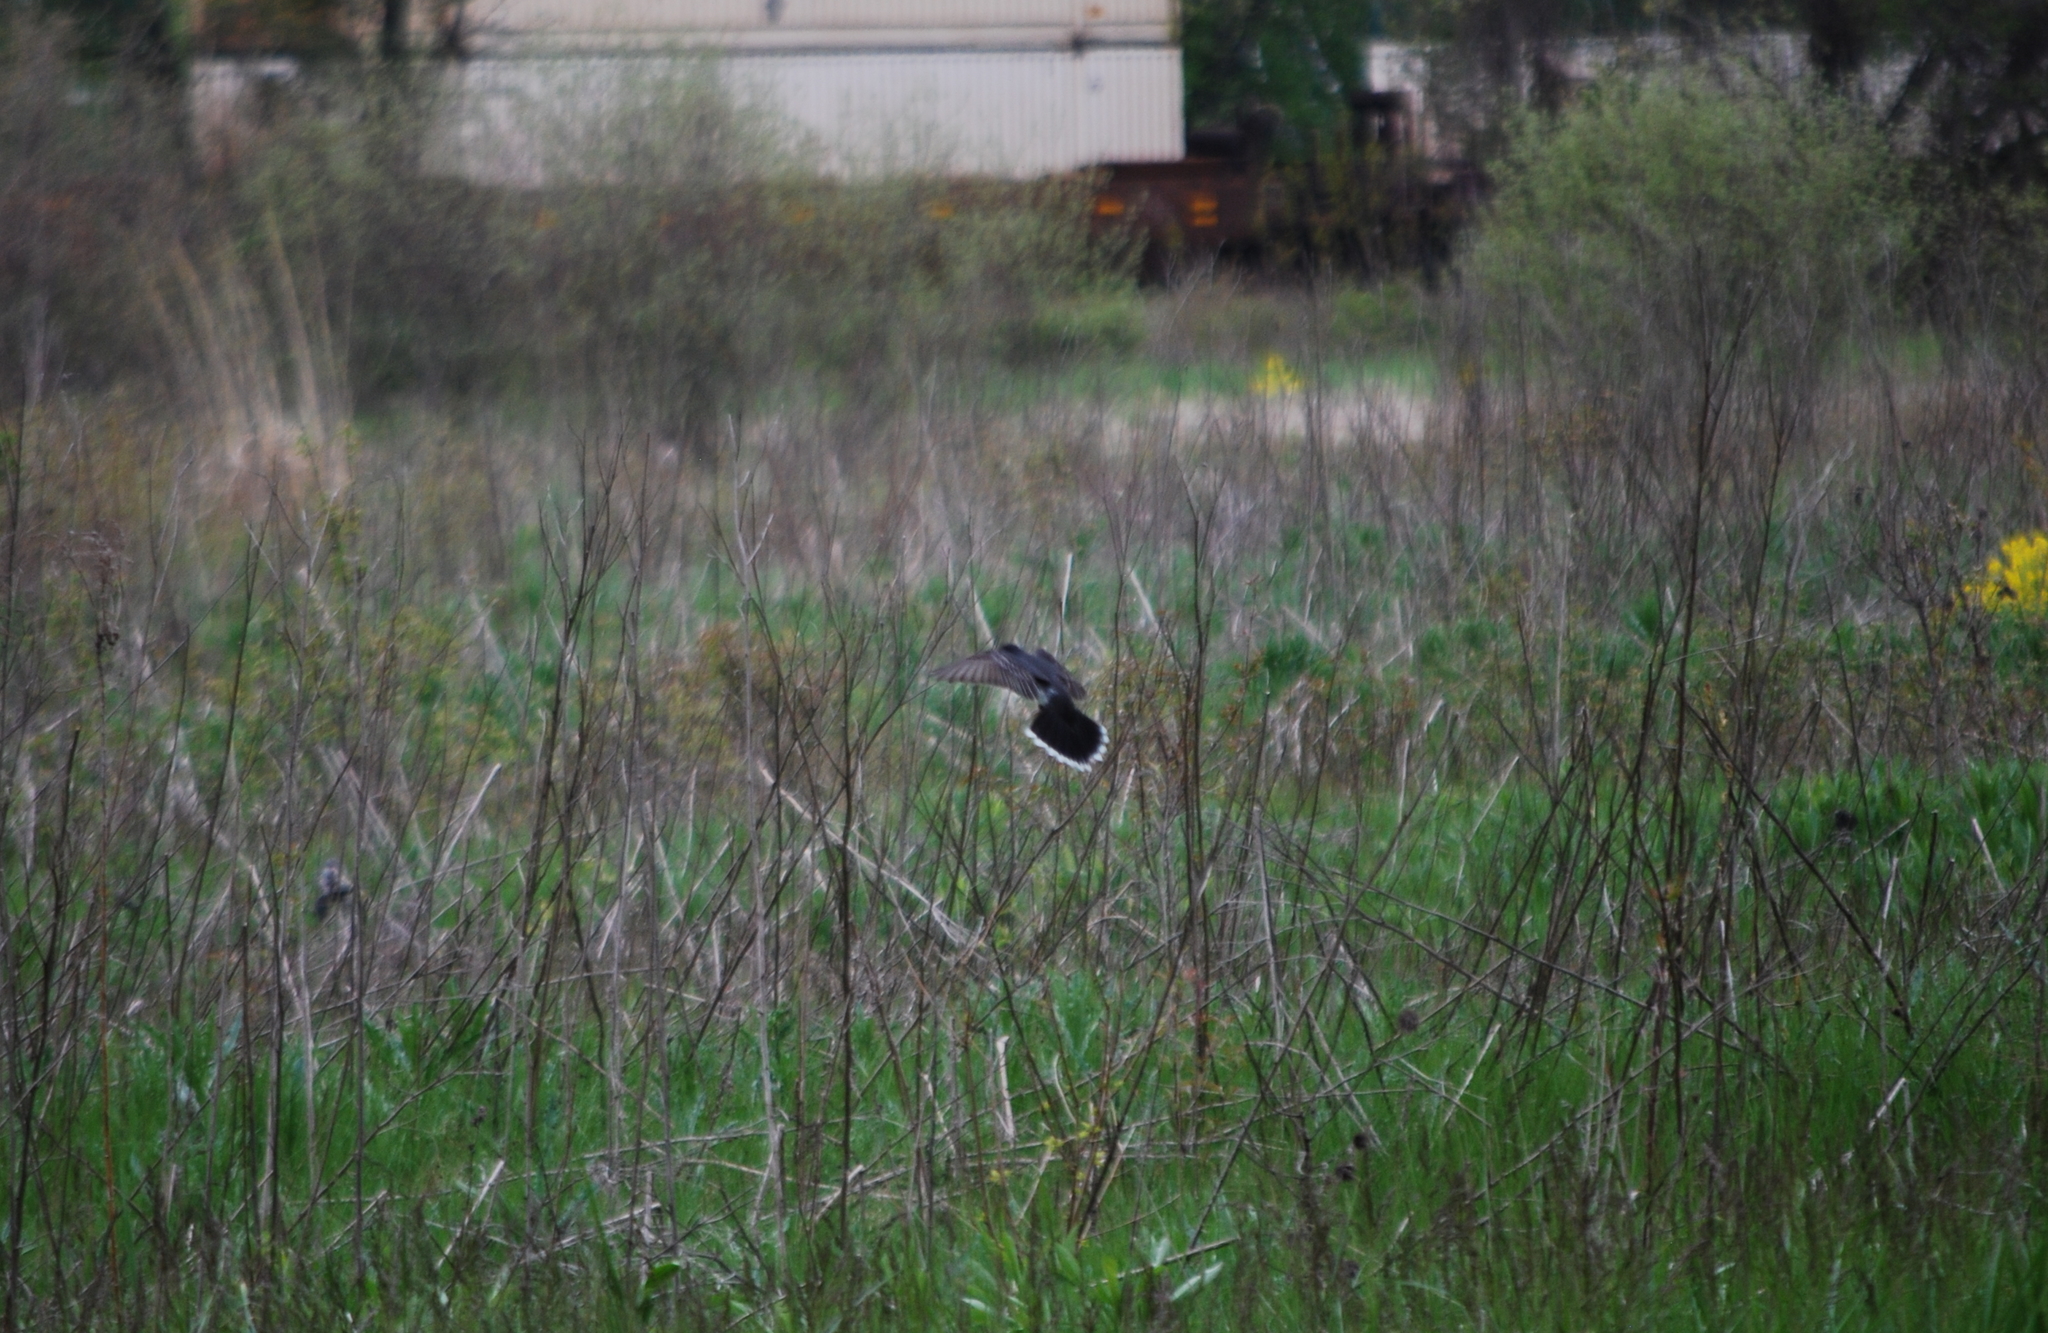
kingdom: Animalia
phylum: Chordata
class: Aves
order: Passeriformes
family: Tyrannidae
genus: Tyrannus
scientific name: Tyrannus tyrannus
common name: Eastern kingbird
